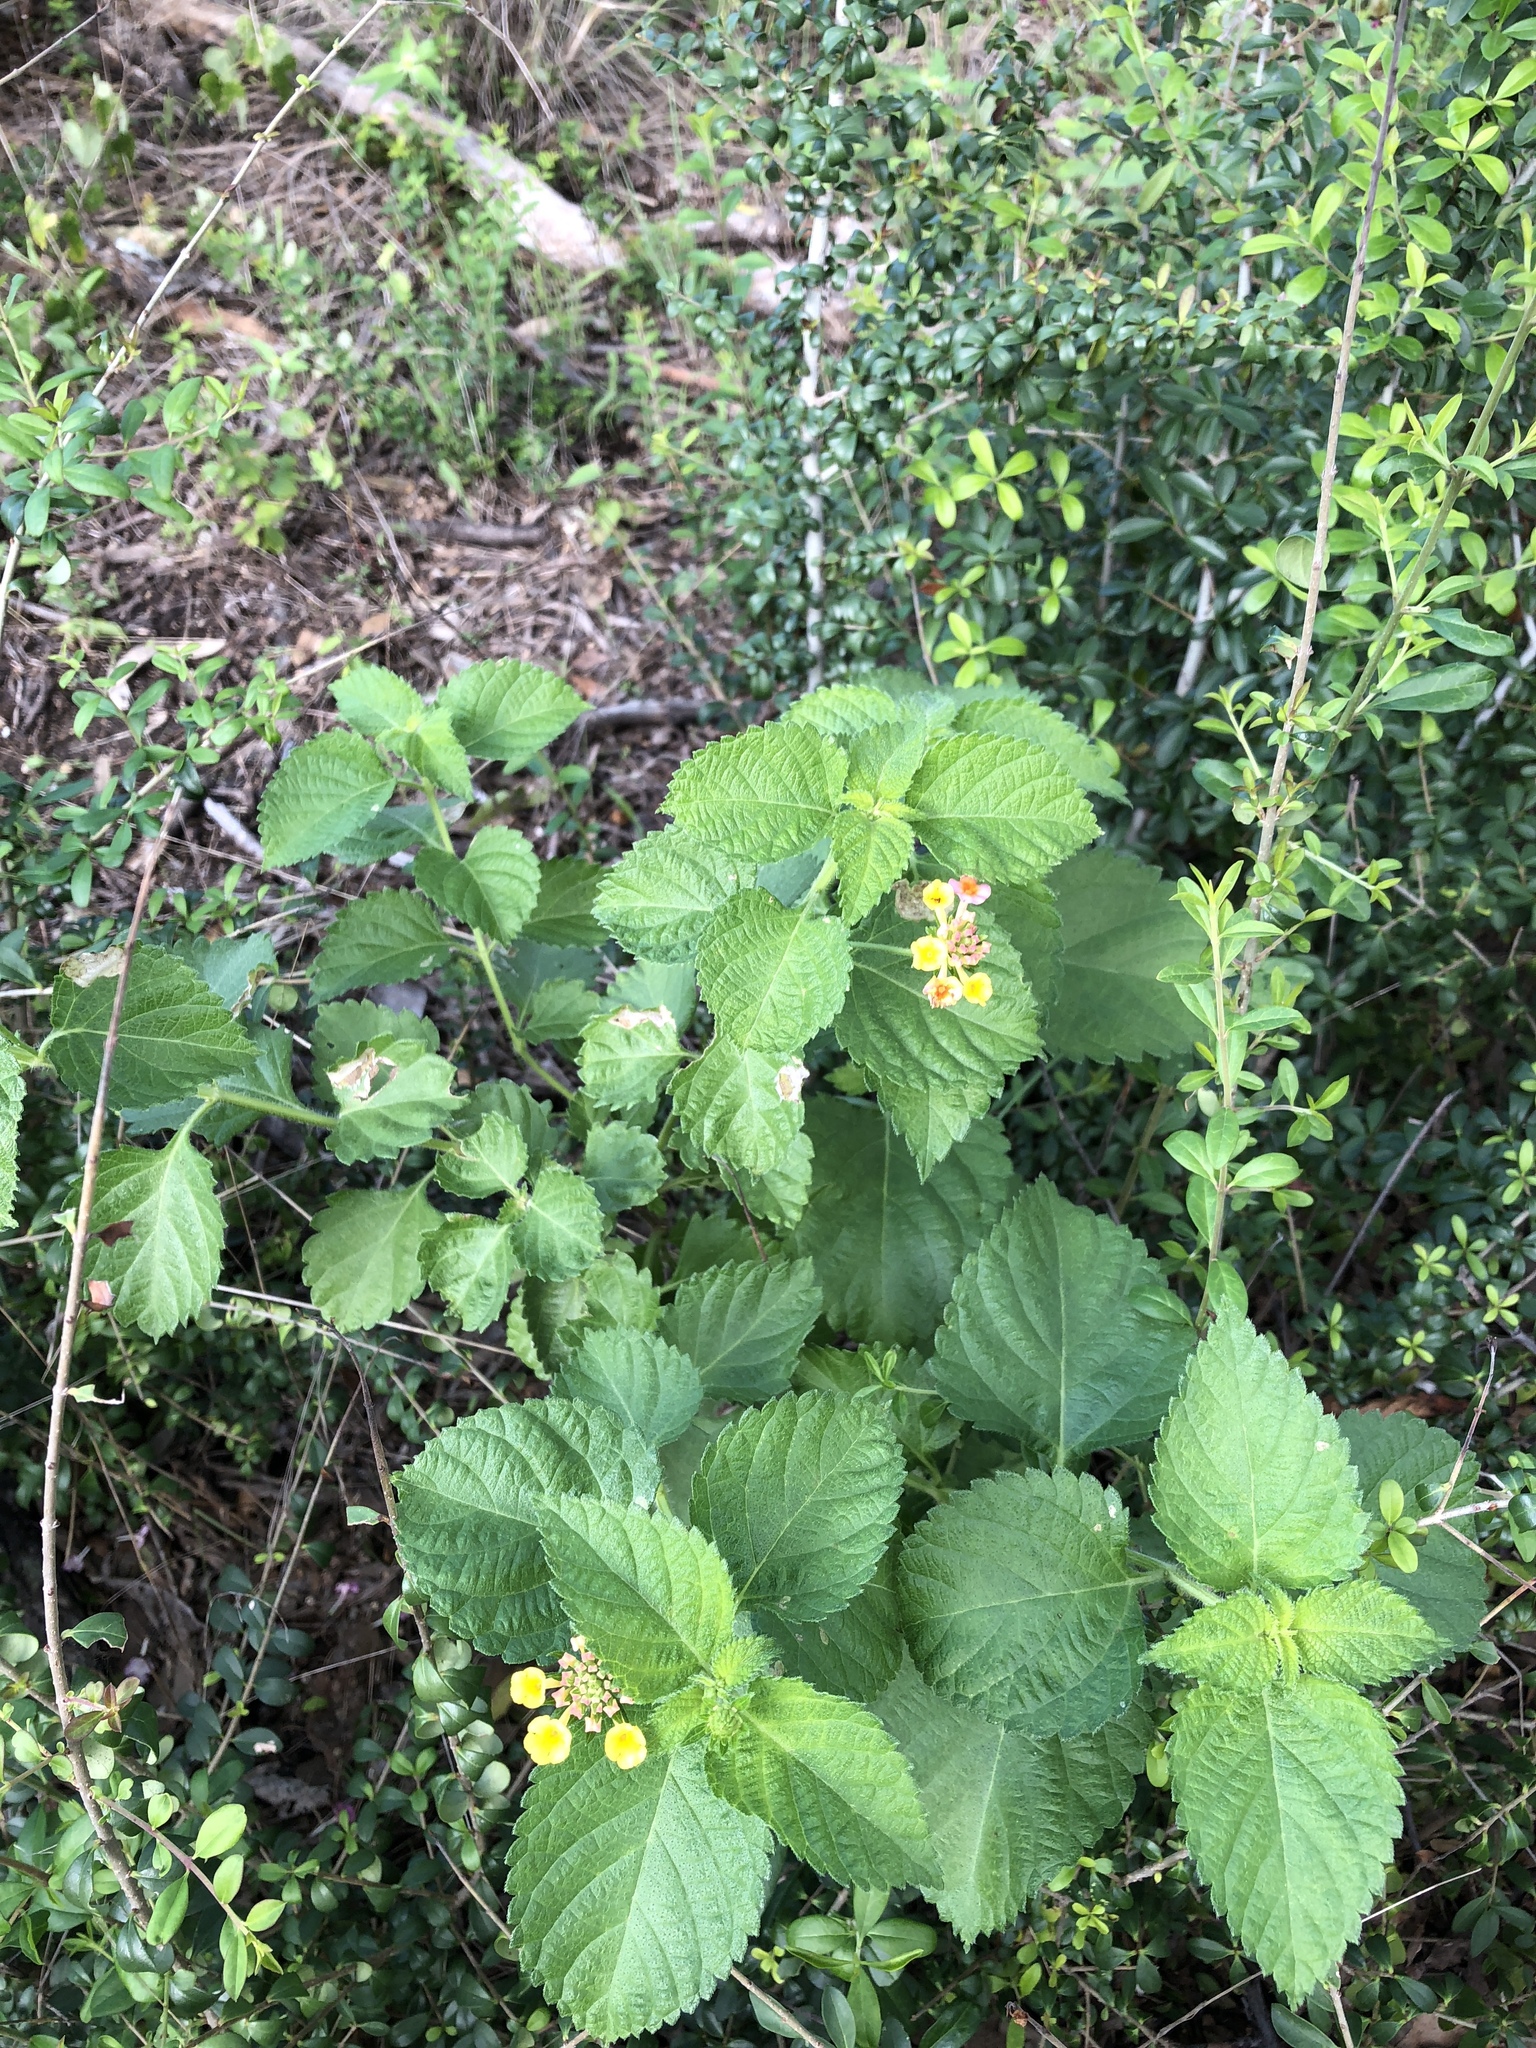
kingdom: Plantae
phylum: Tracheophyta
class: Magnoliopsida
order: Lamiales
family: Verbenaceae
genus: Lantana
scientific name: Lantana
